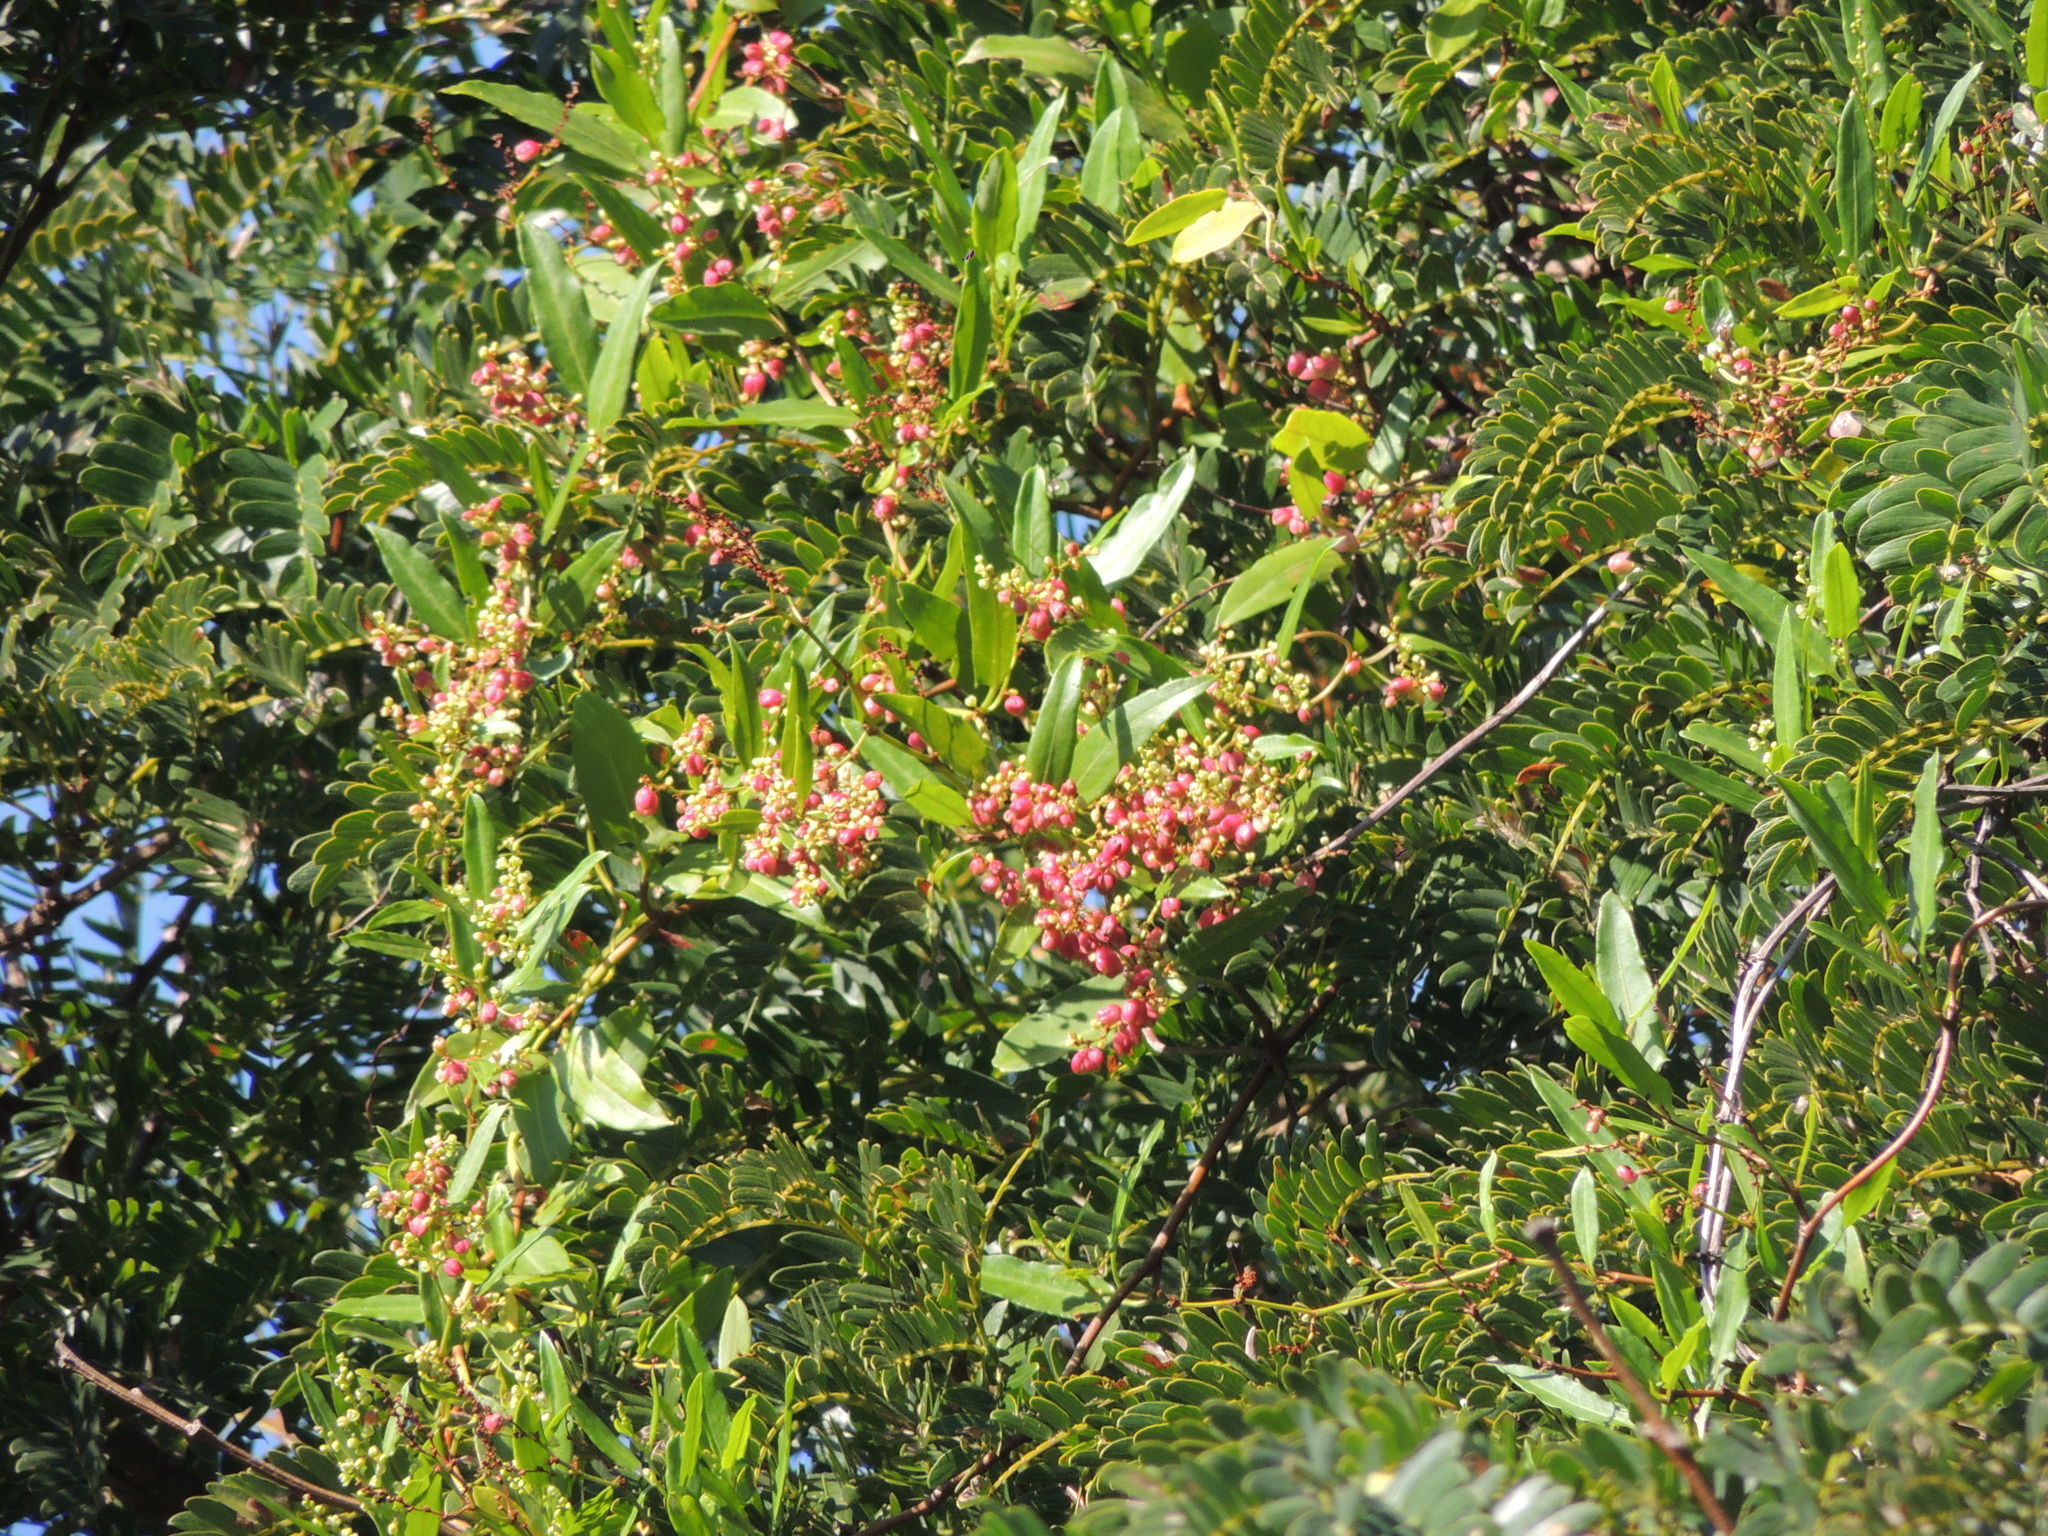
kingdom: Plantae
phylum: Tracheophyta
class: Magnoliopsida
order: Caryophyllales
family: Polygonaceae
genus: Muehlenbeckia
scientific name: Muehlenbeckia sagittifolia
